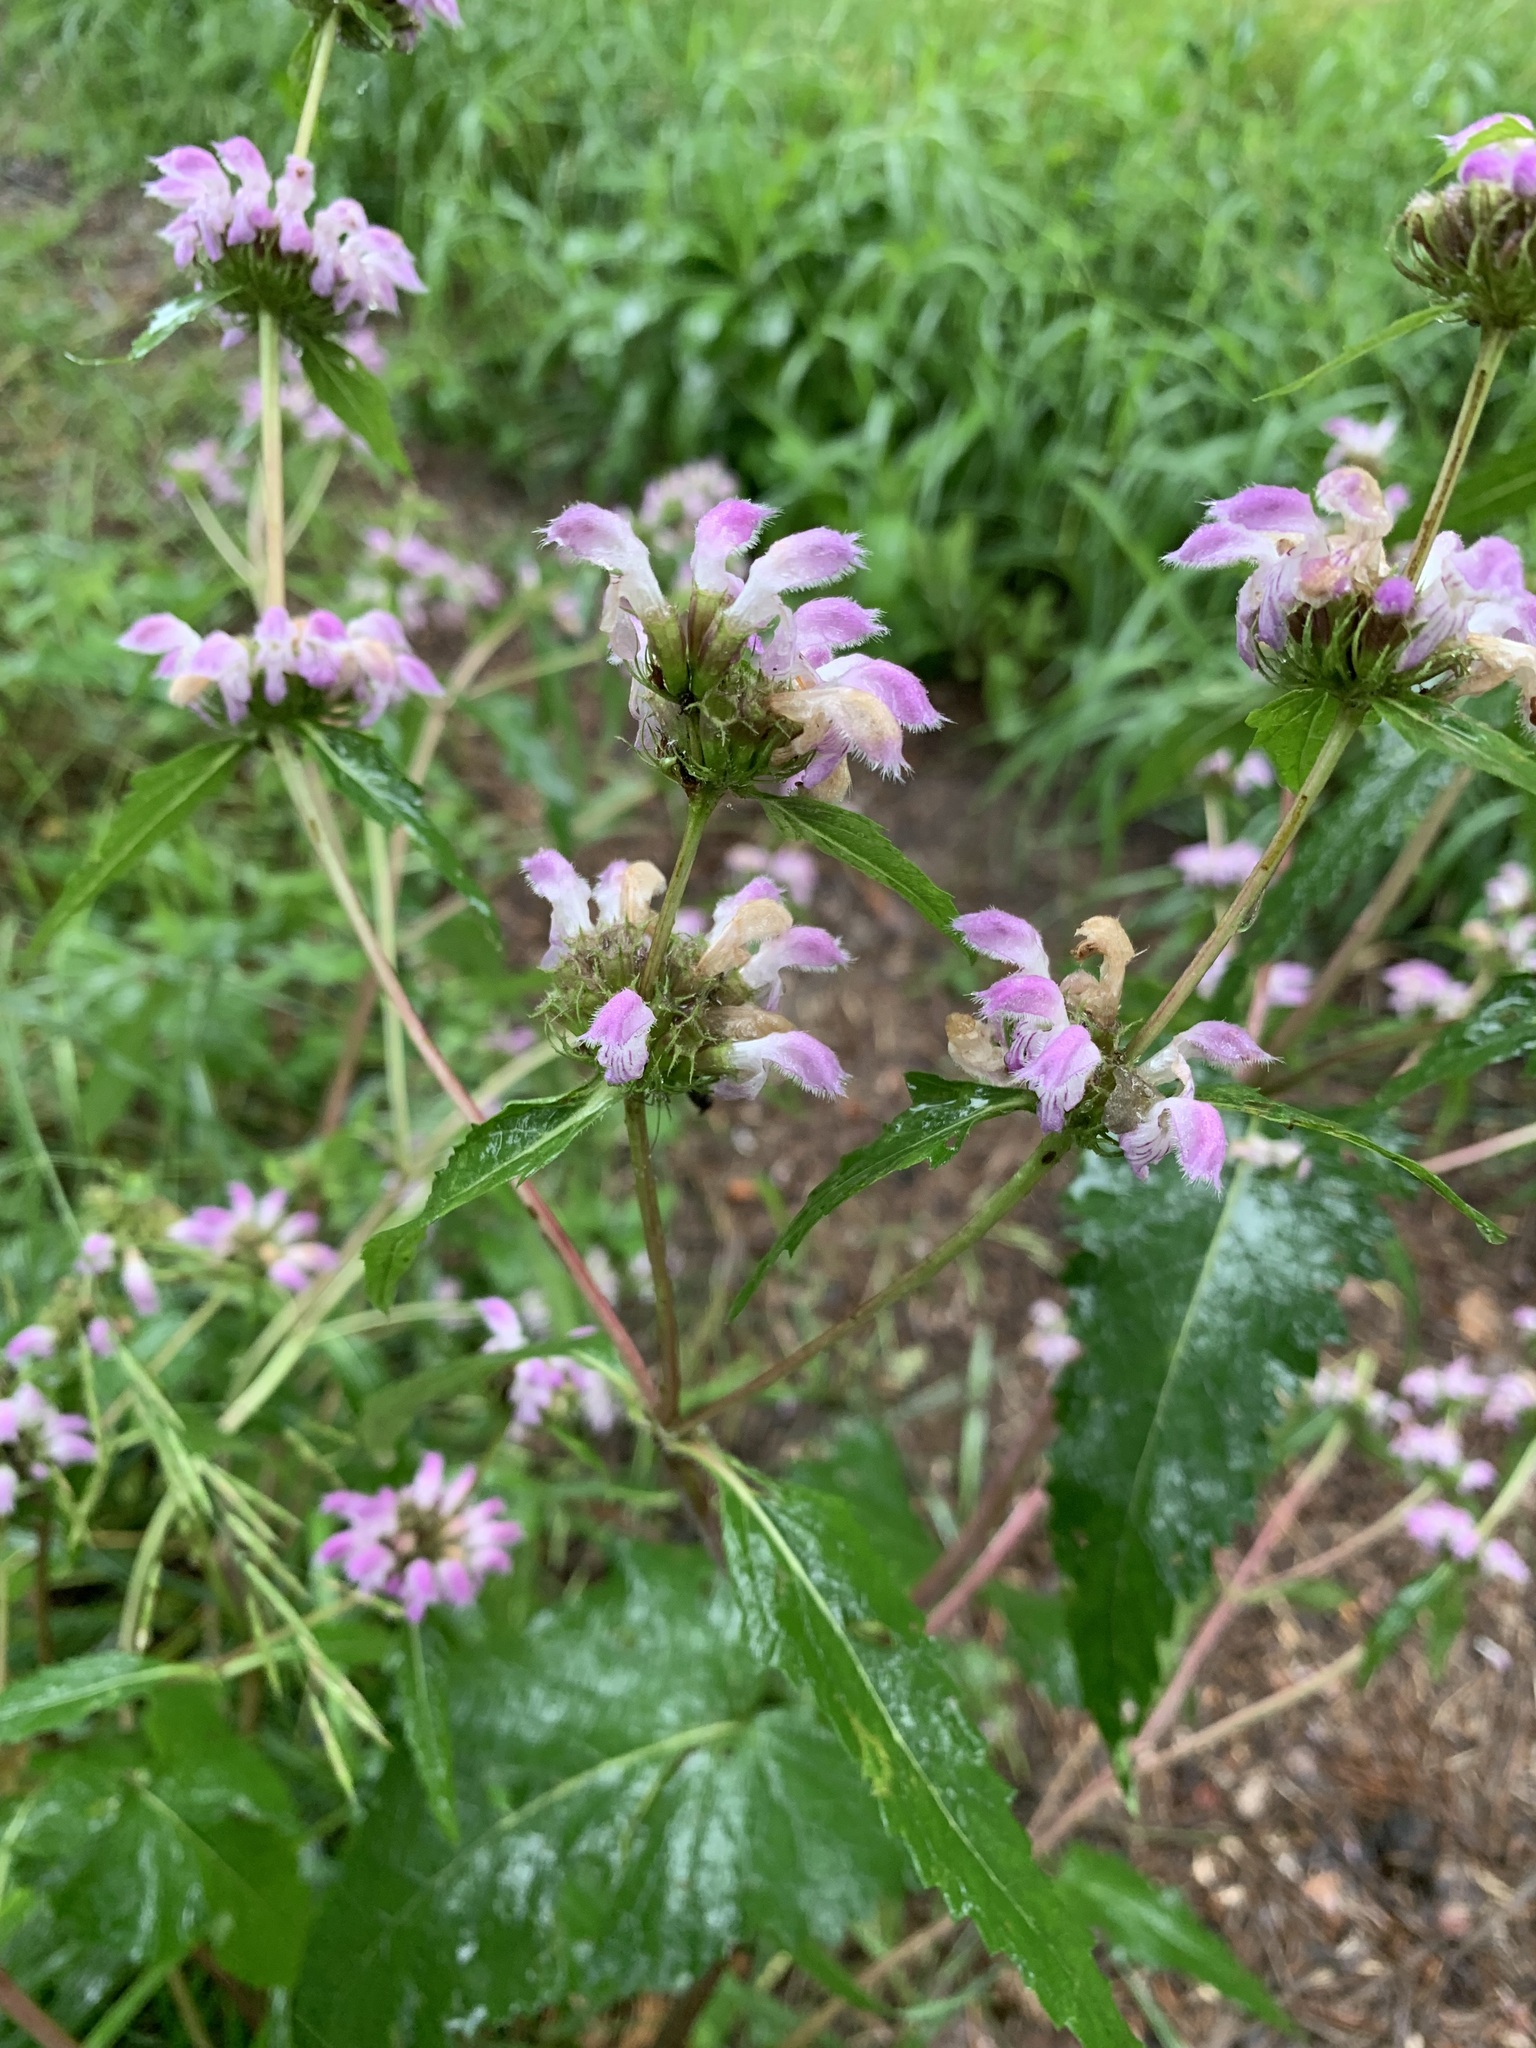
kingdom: Plantae
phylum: Tracheophyta
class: Magnoliopsida
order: Lamiales
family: Lamiaceae
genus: Phlomoides
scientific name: Phlomoides tuberosa
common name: Tuberous jerusalem sage
